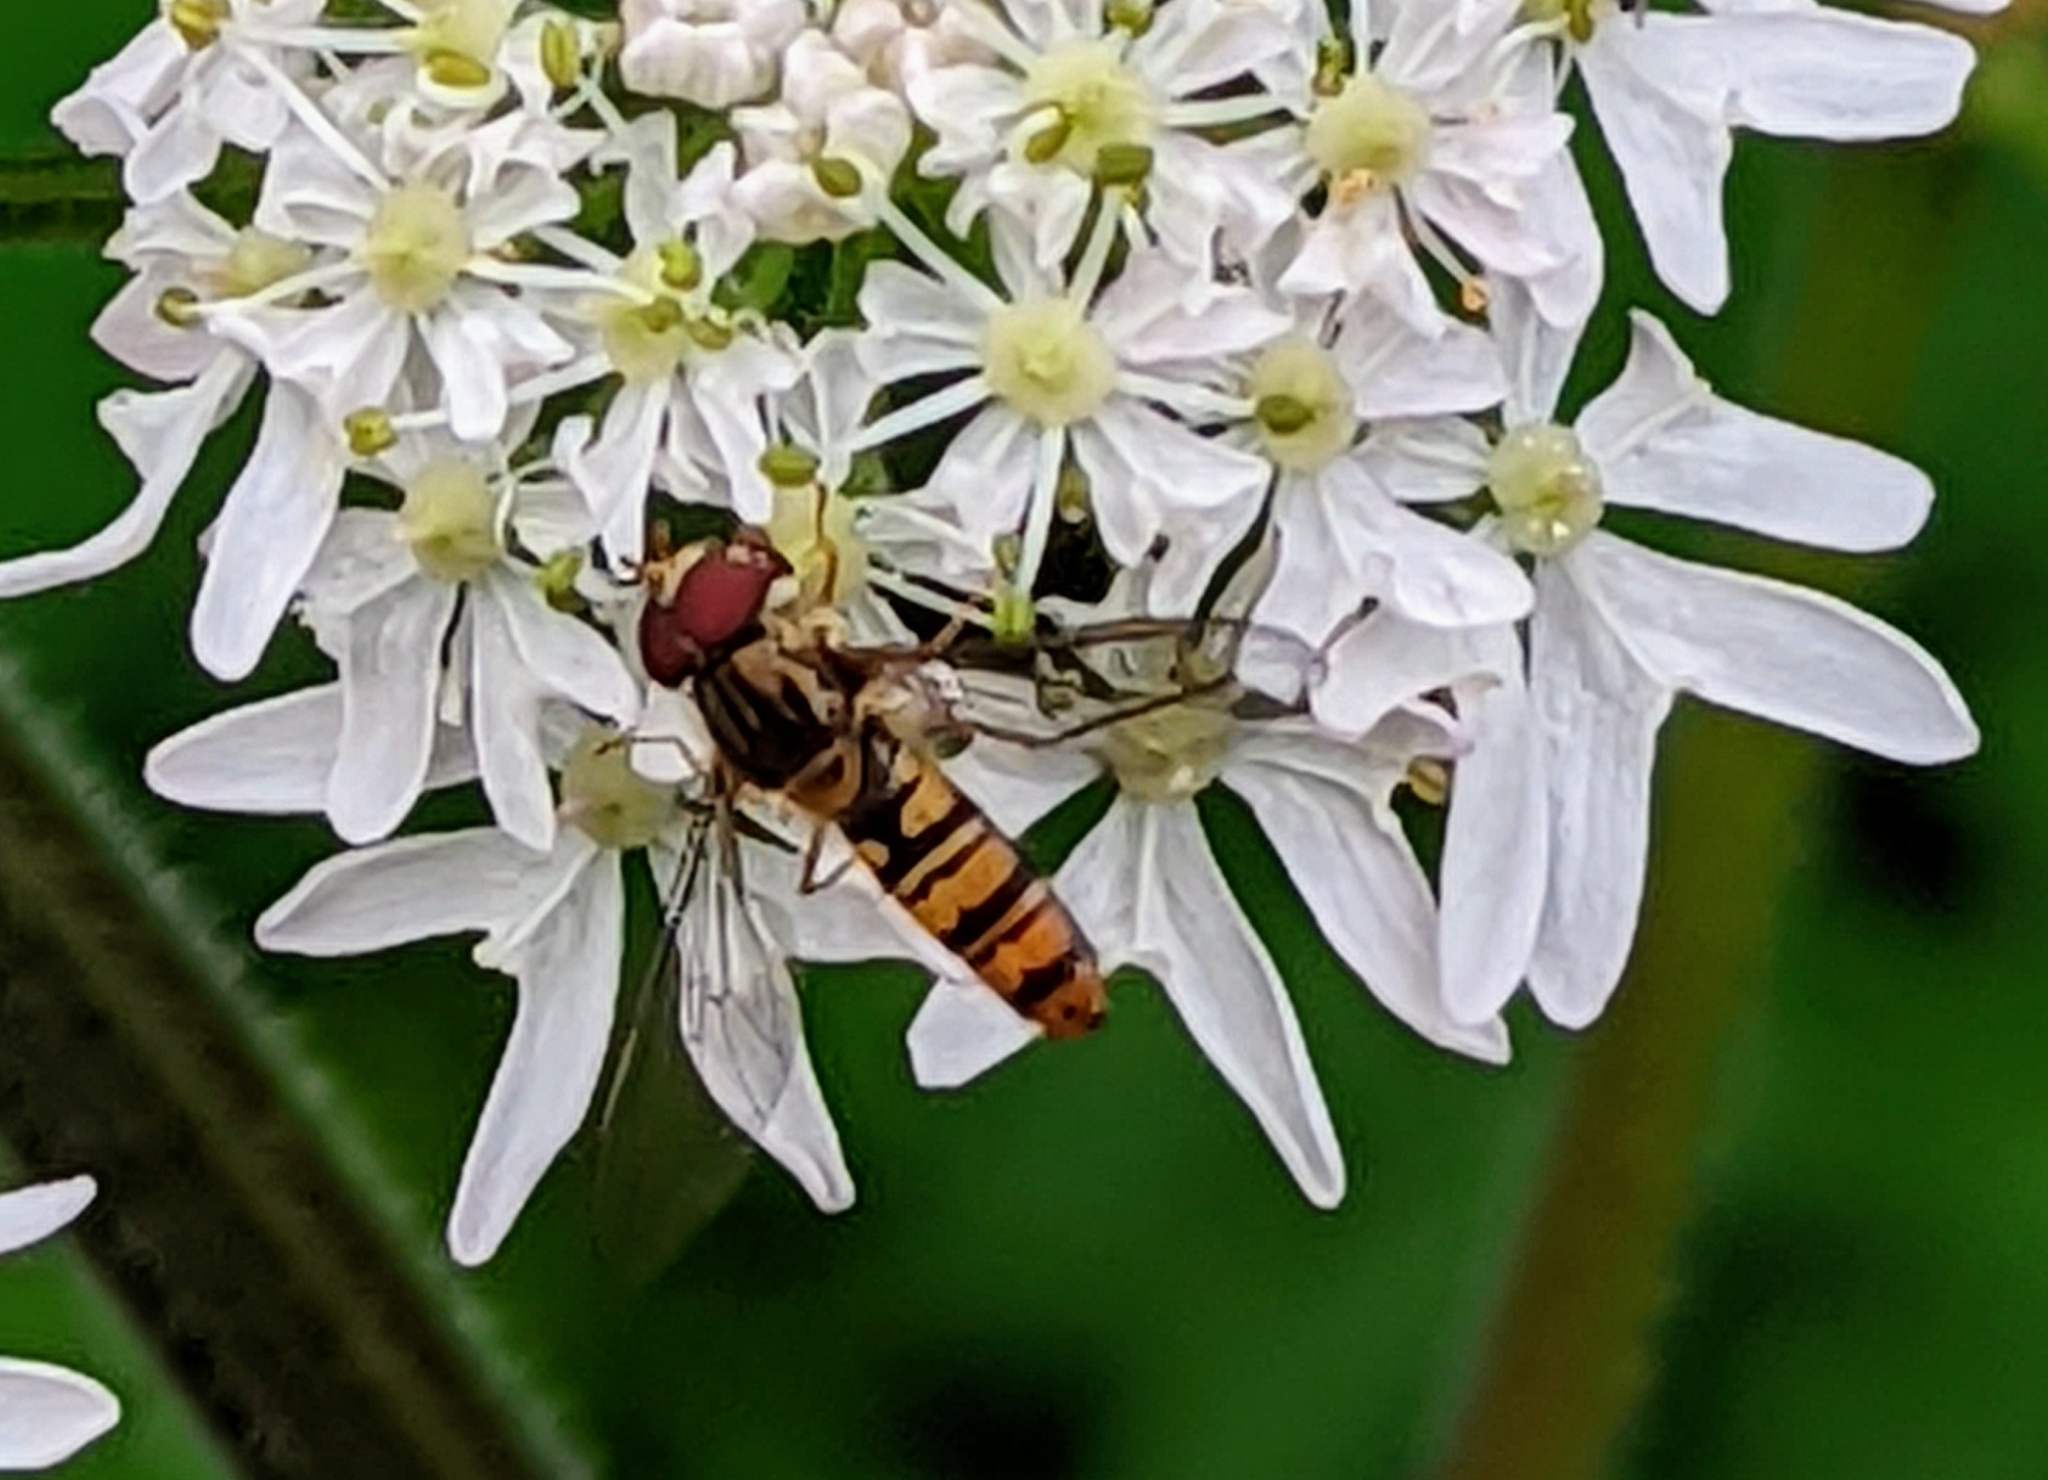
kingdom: Animalia
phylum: Arthropoda
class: Insecta
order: Diptera
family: Syrphidae
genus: Episyrphus
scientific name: Episyrphus balteatus
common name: Marmalade hoverfly
